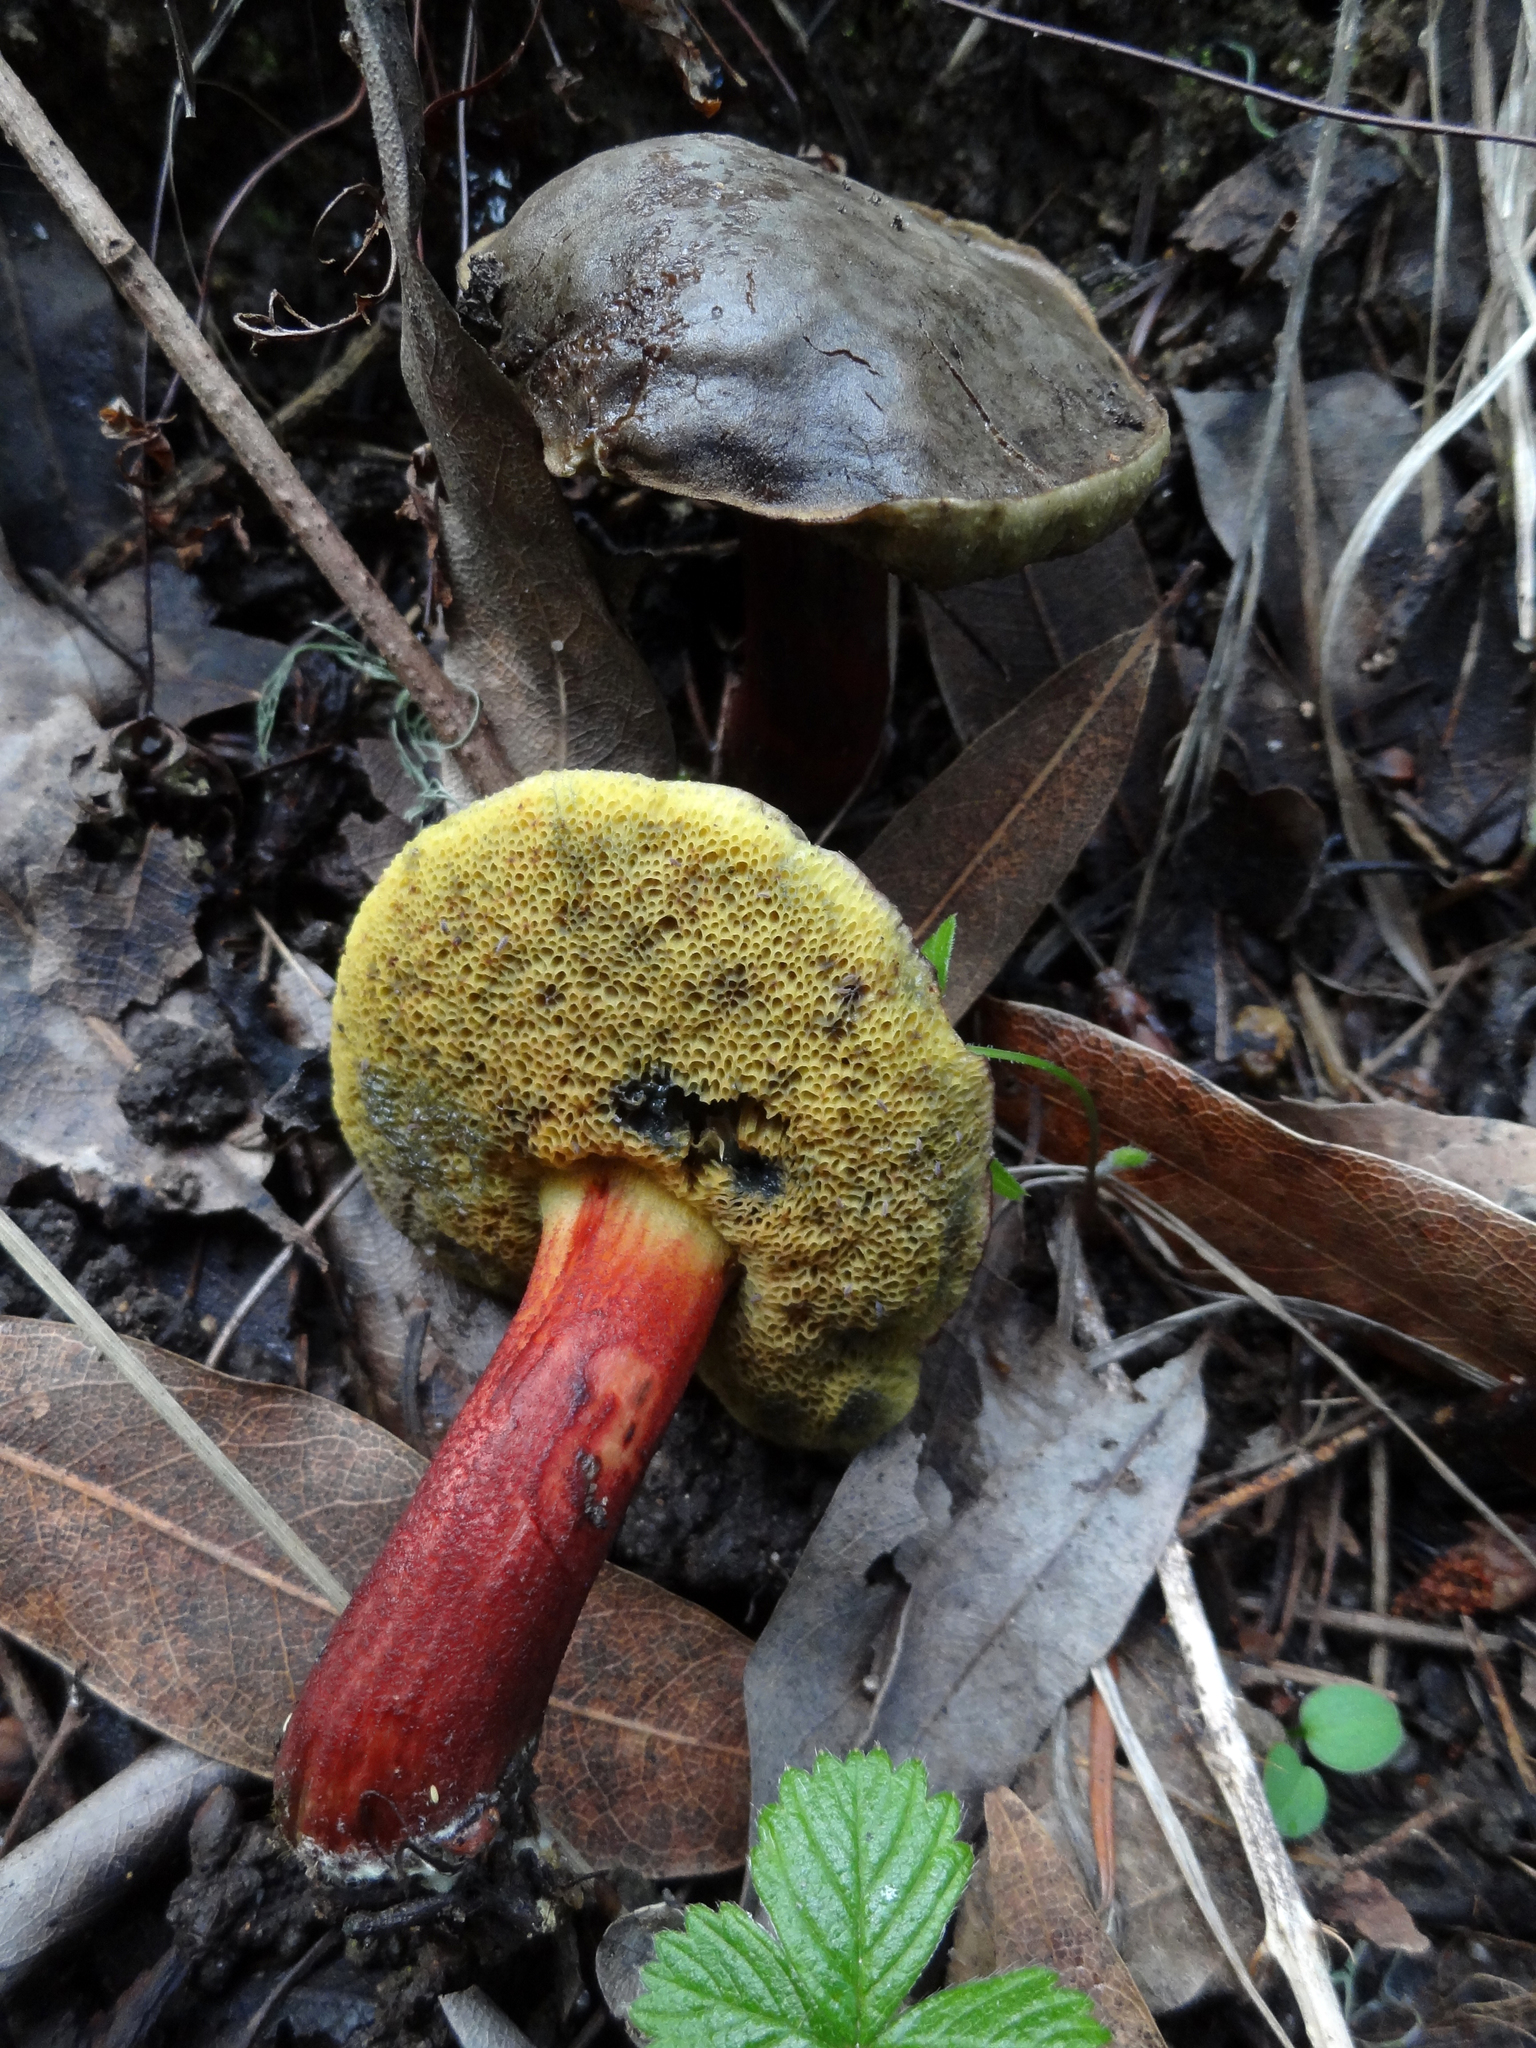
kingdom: Fungi
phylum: Basidiomycota
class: Agaricomycetes
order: Boletales
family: Boletaceae
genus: Xerocomellus
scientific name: Xerocomellus mendocinensis
